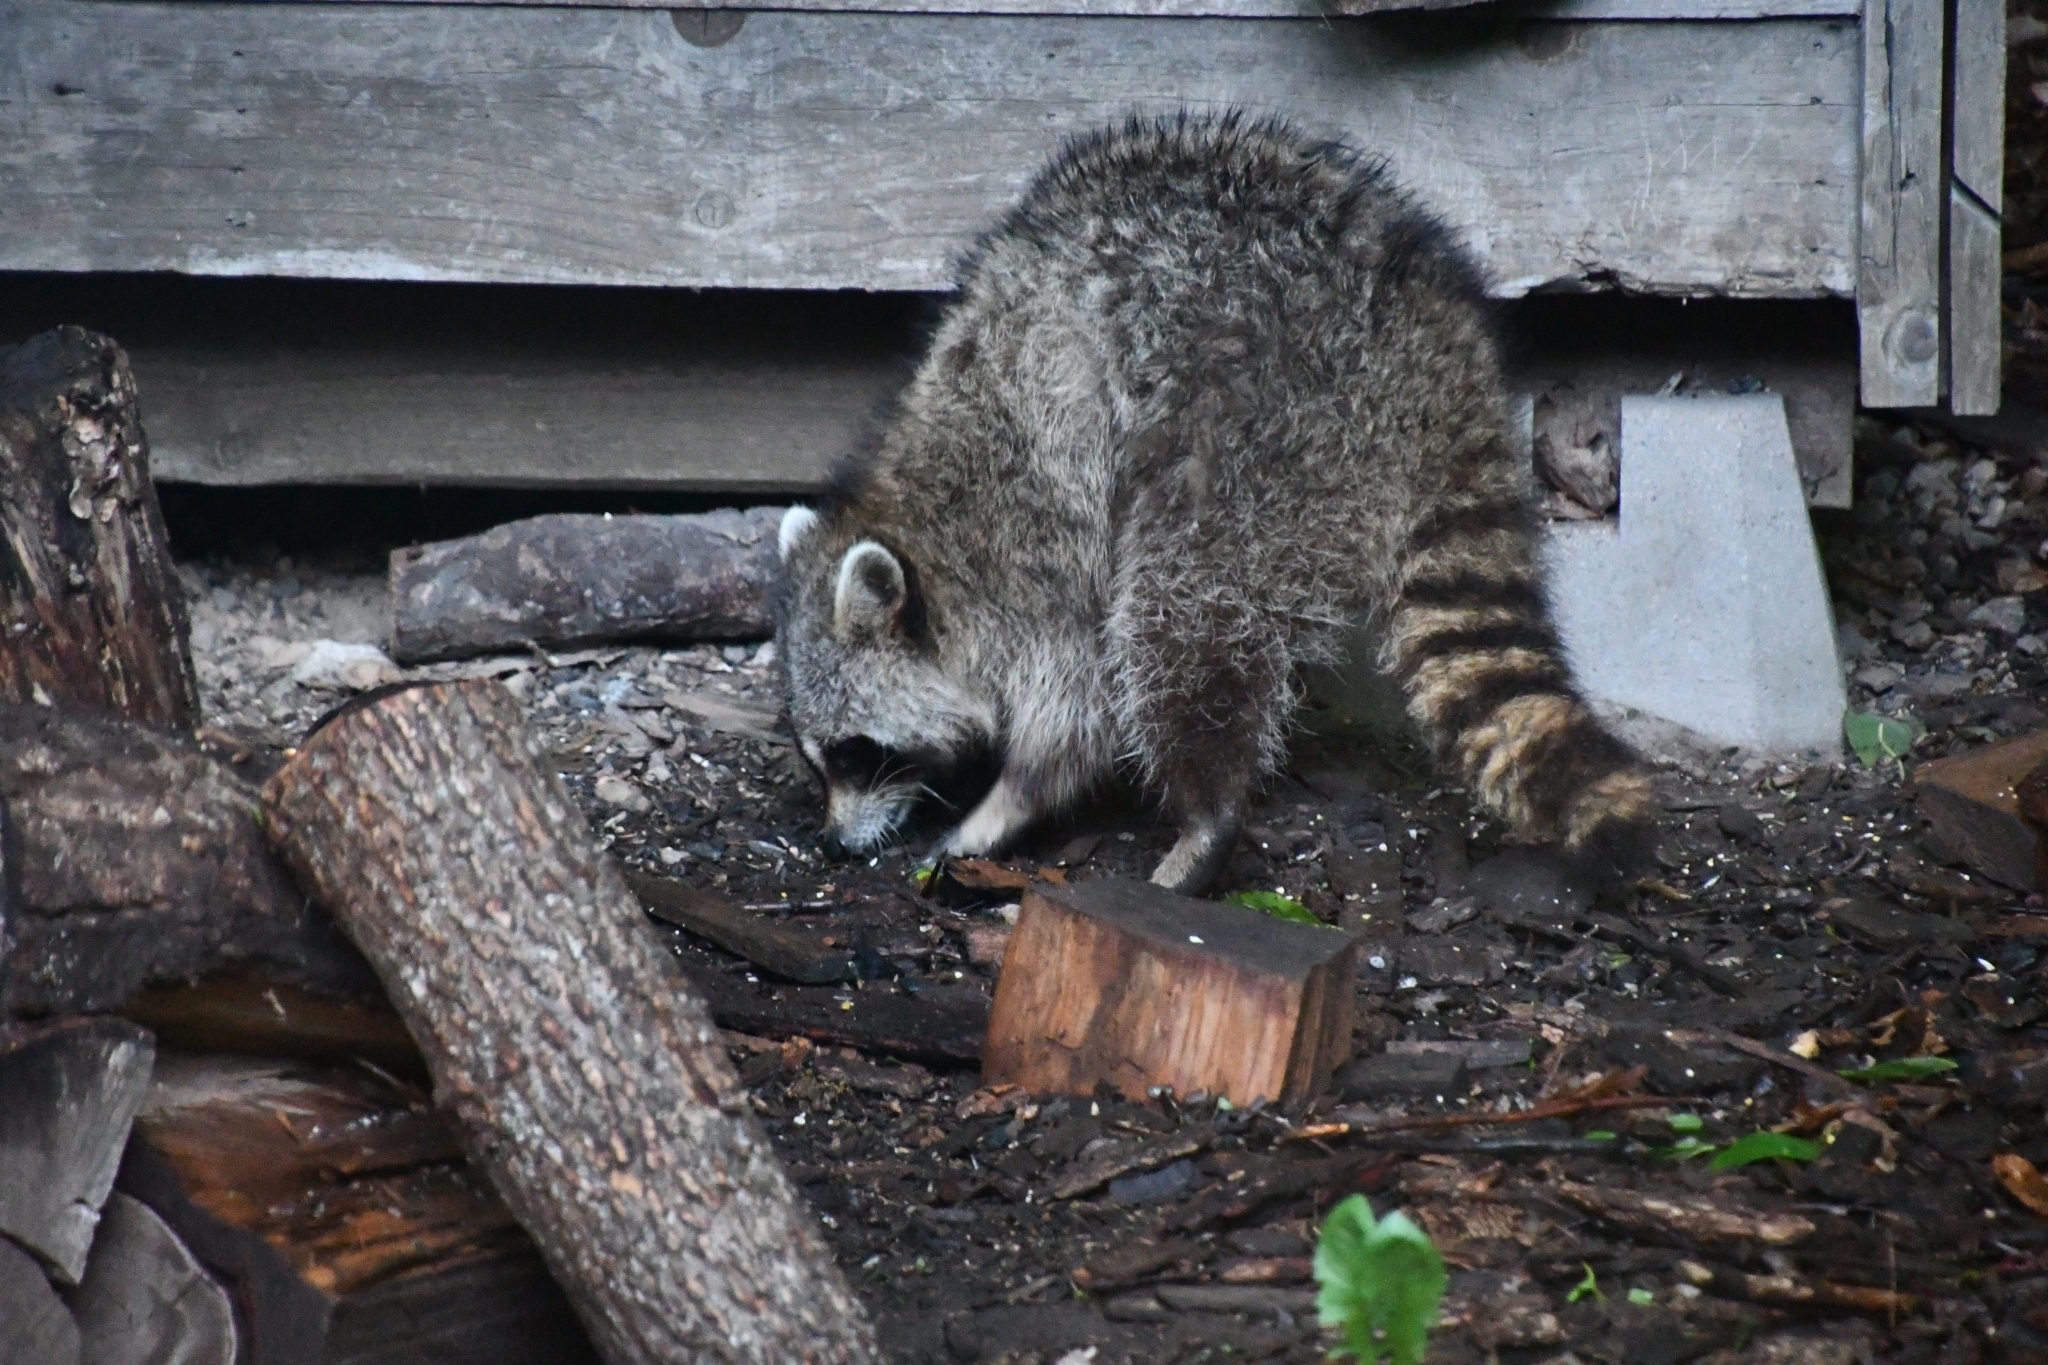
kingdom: Animalia
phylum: Chordata
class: Mammalia
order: Carnivora
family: Procyonidae
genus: Procyon
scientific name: Procyon lotor
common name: Raccoon
